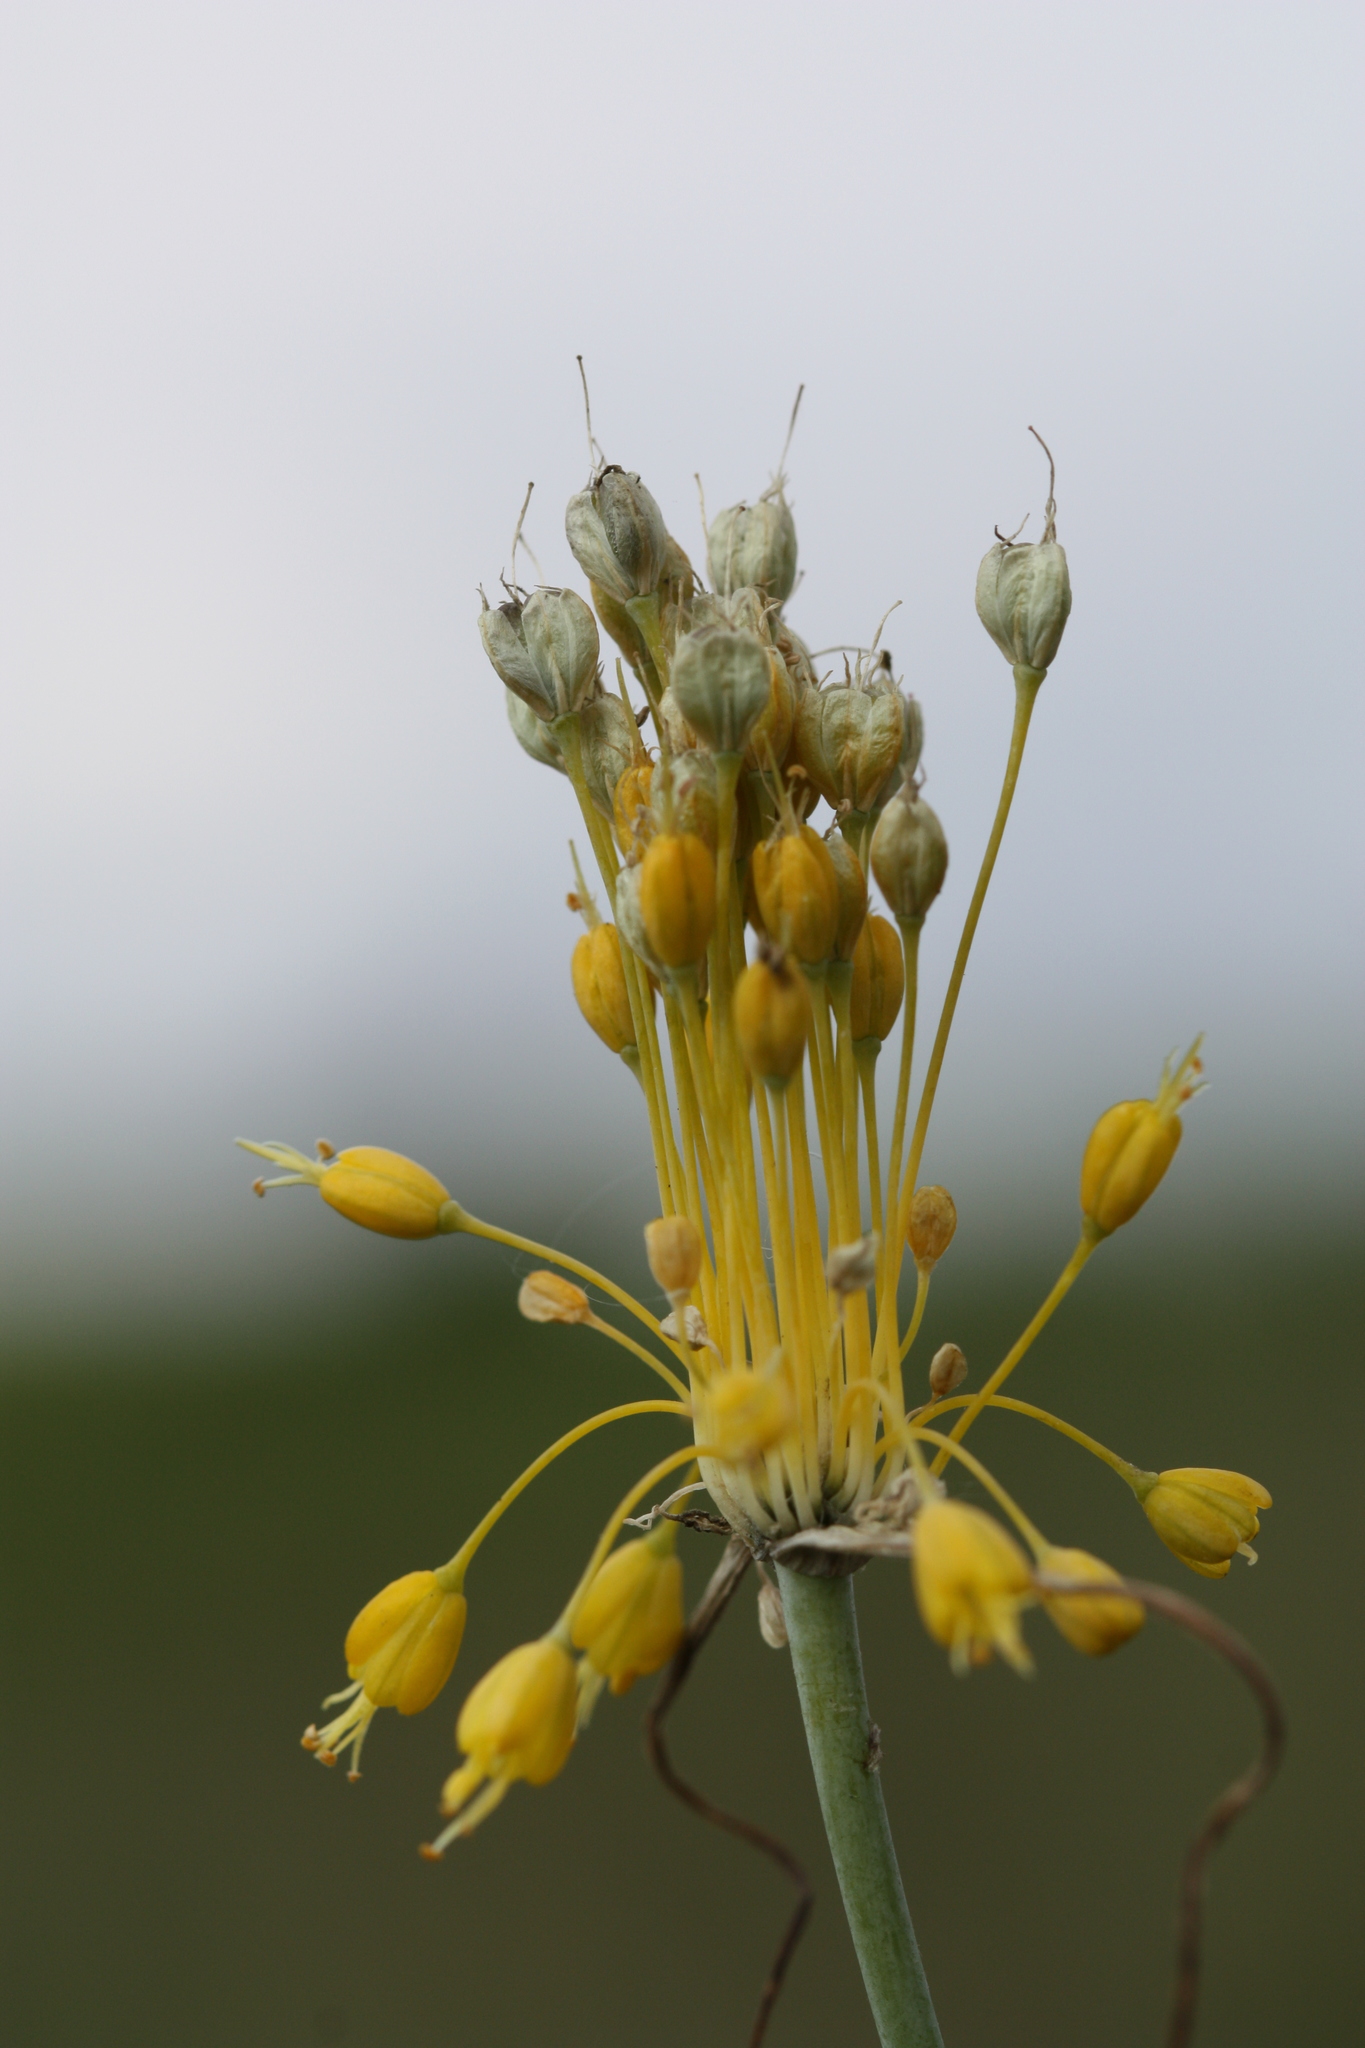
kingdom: Plantae
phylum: Tracheophyta
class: Liliopsida
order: Asparagales
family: Amaryllidaceae
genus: Allium
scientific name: Allium flavum
